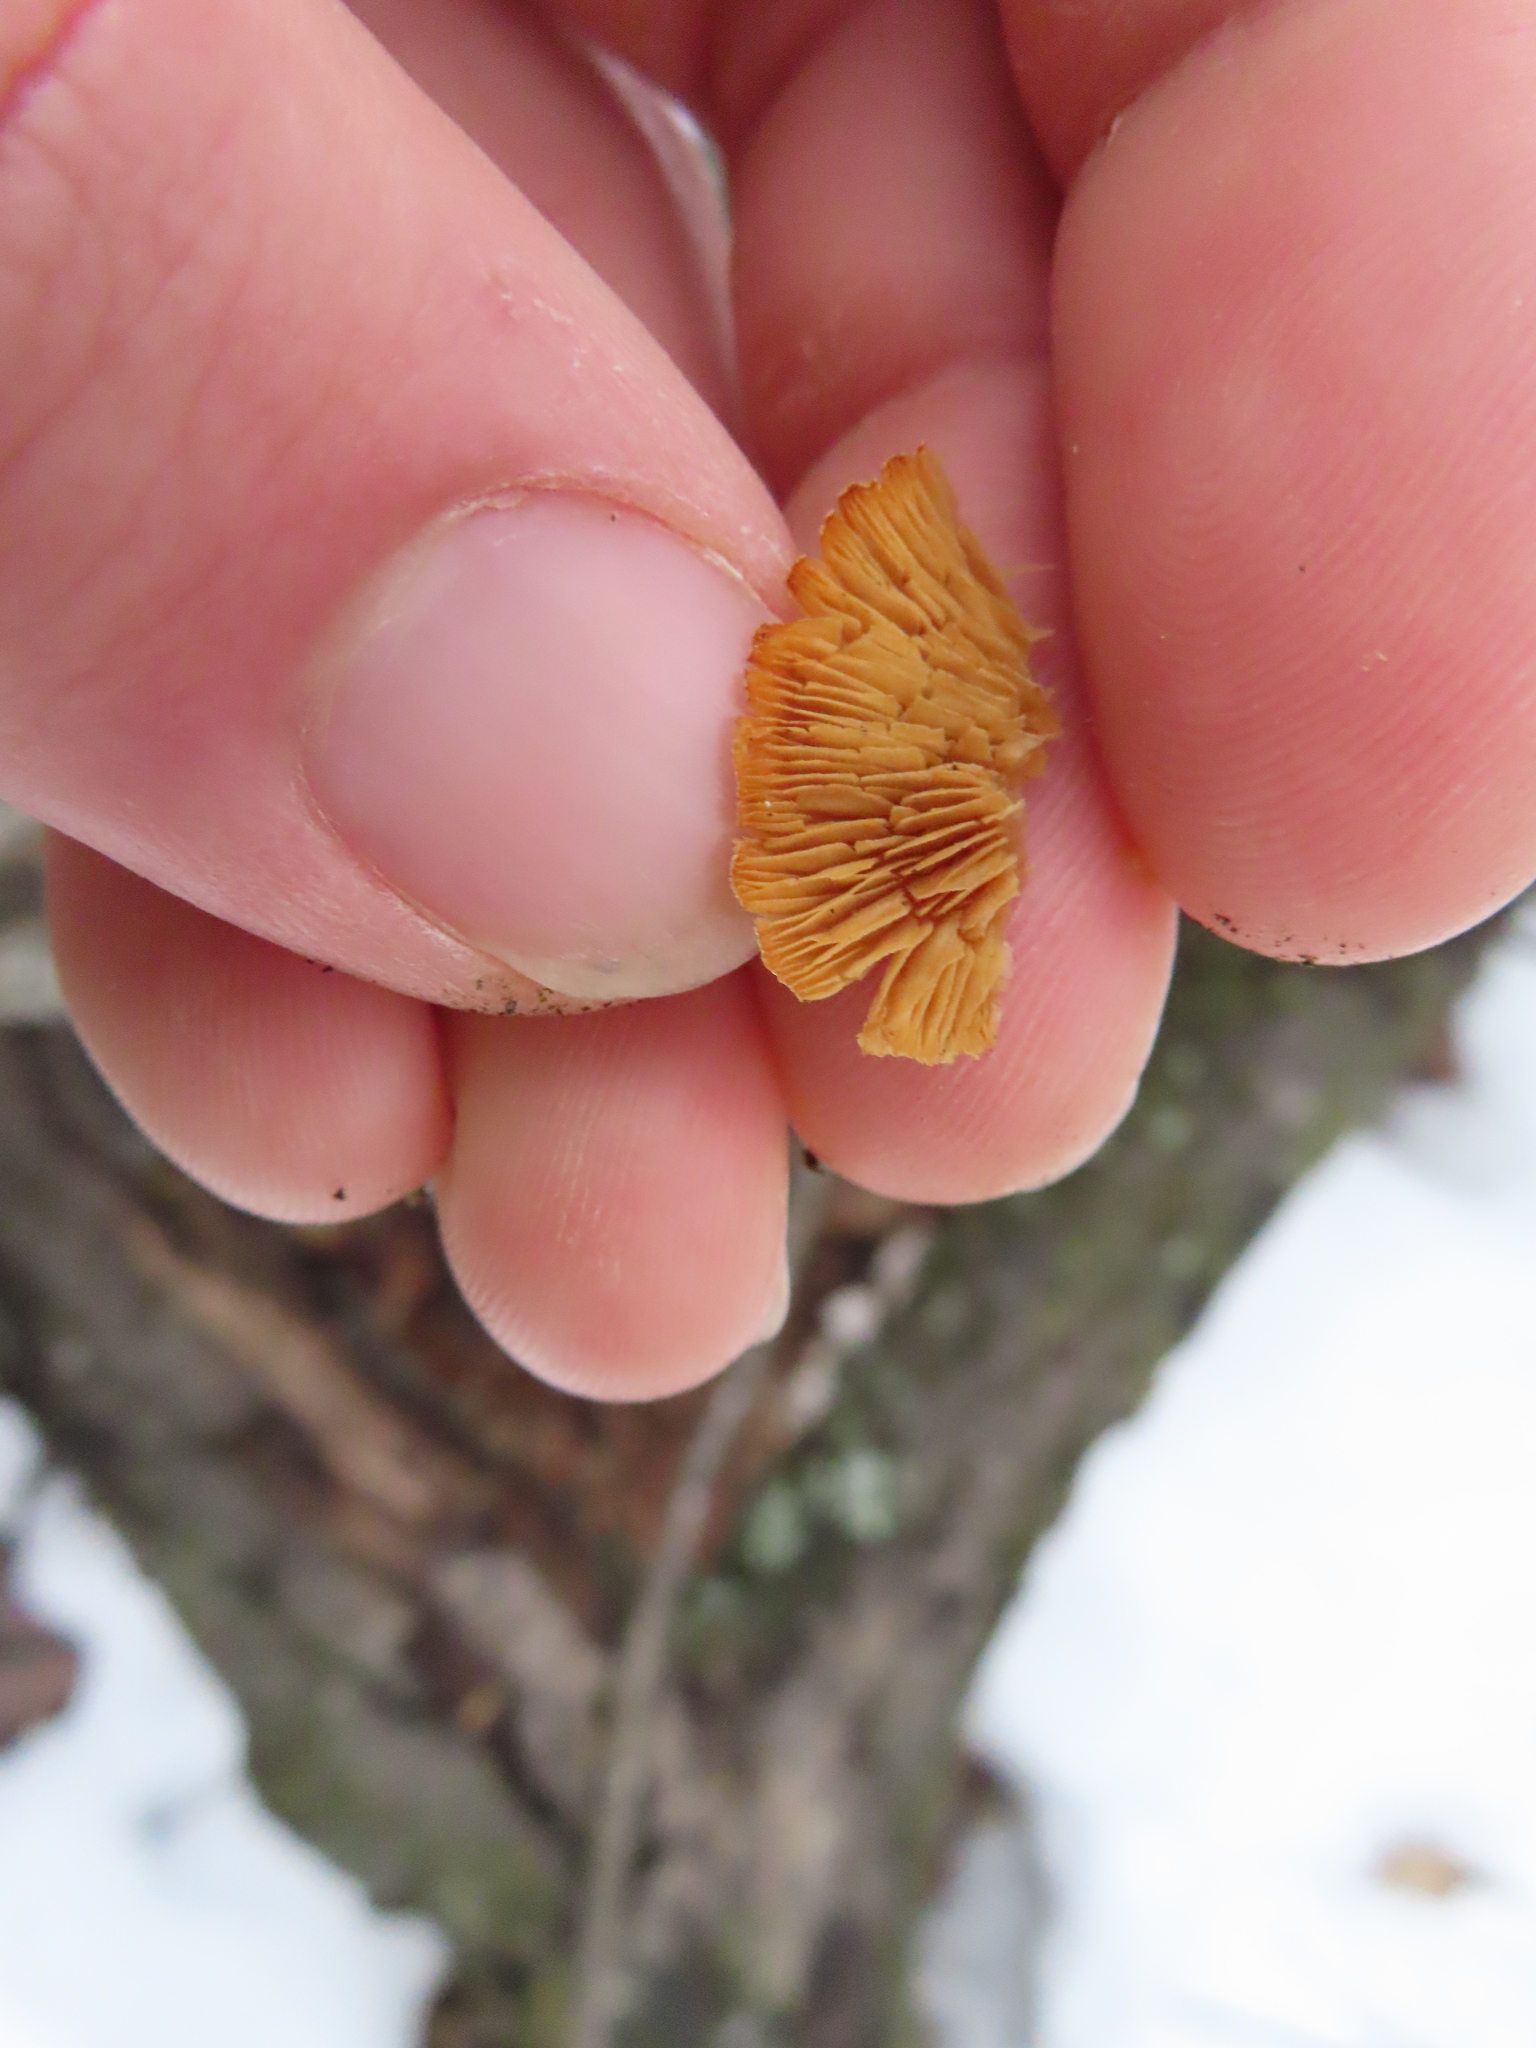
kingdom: Fungi
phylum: Basidiomycota
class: Agaricomycetes
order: Agaricales
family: Mycenaceae
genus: Panellus
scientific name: Panellus stipticus
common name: Bitter oysterling
